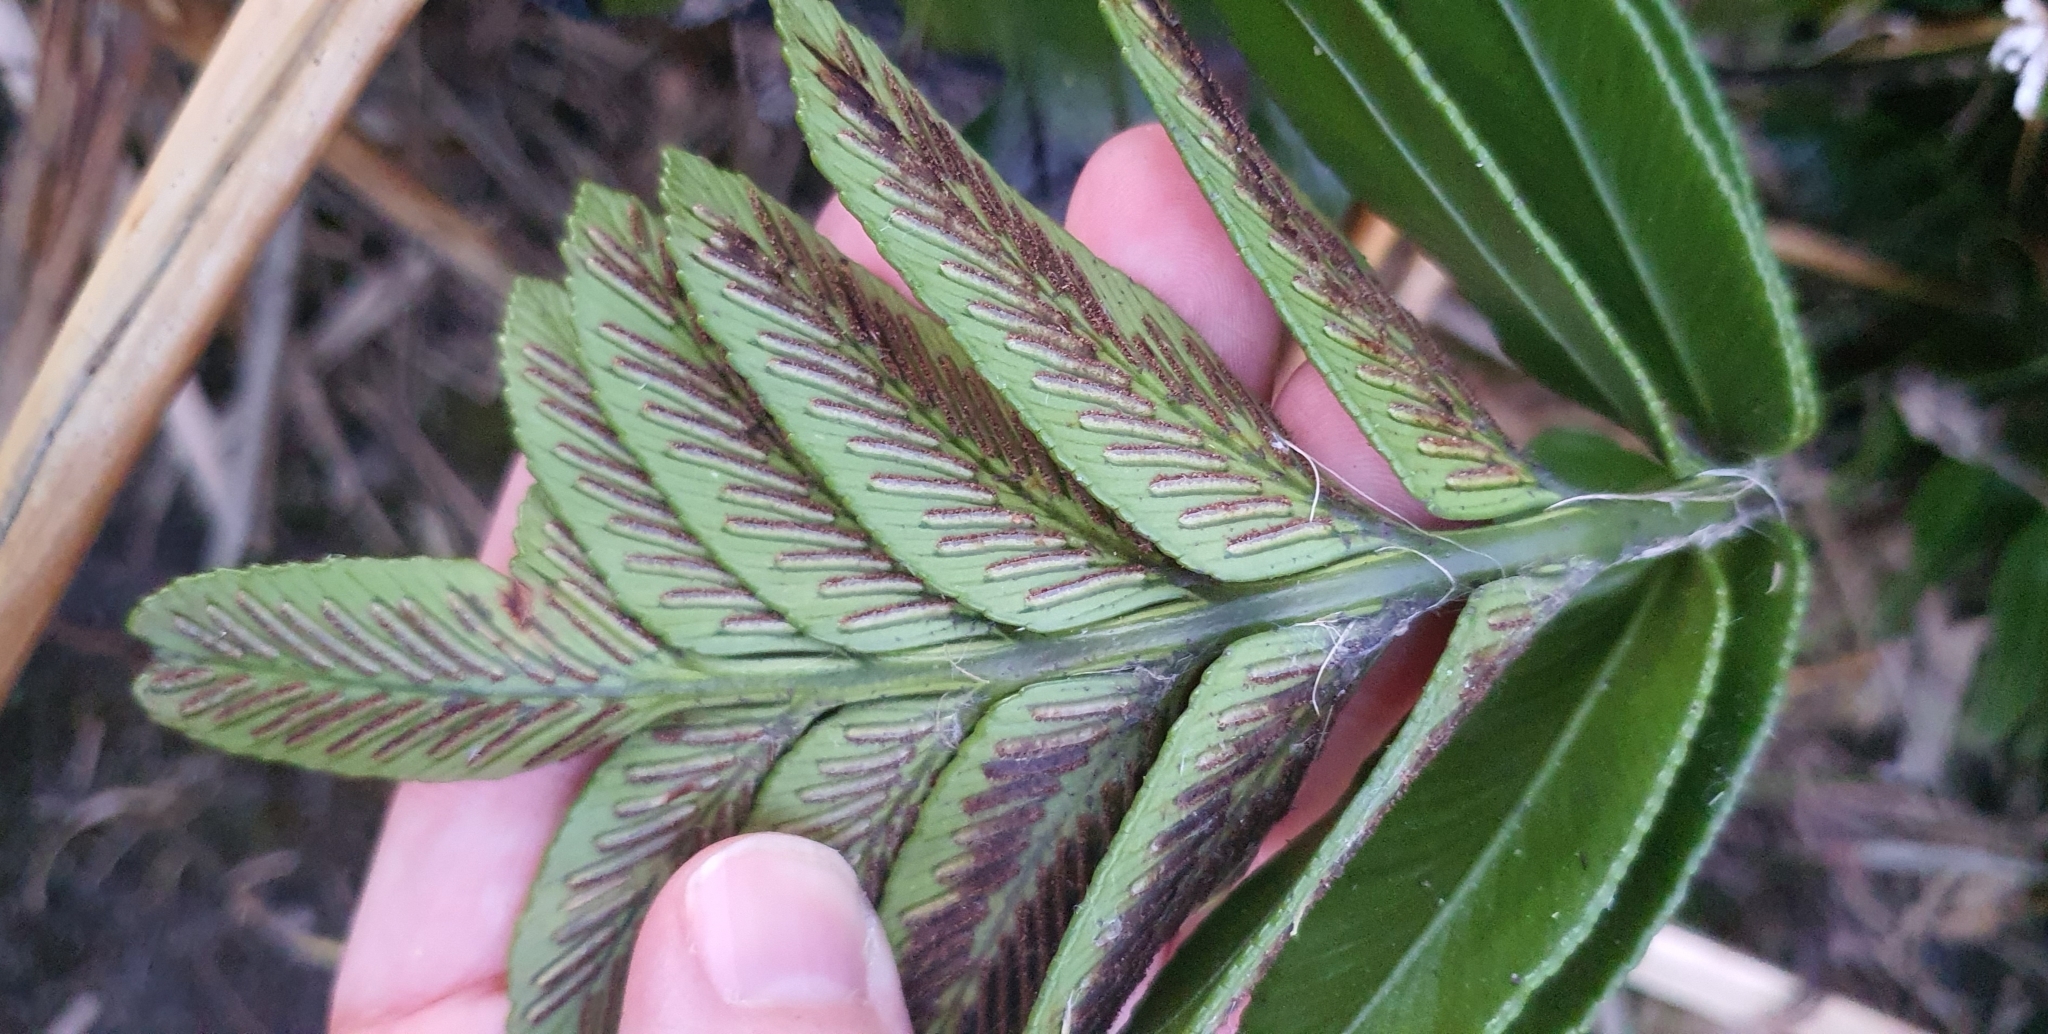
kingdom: Plantae
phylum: Tracheophyta
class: Polypodiopsida
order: Polypodiales
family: Aspleniaceae
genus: Asplenium
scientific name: Asplenium obtusatum
